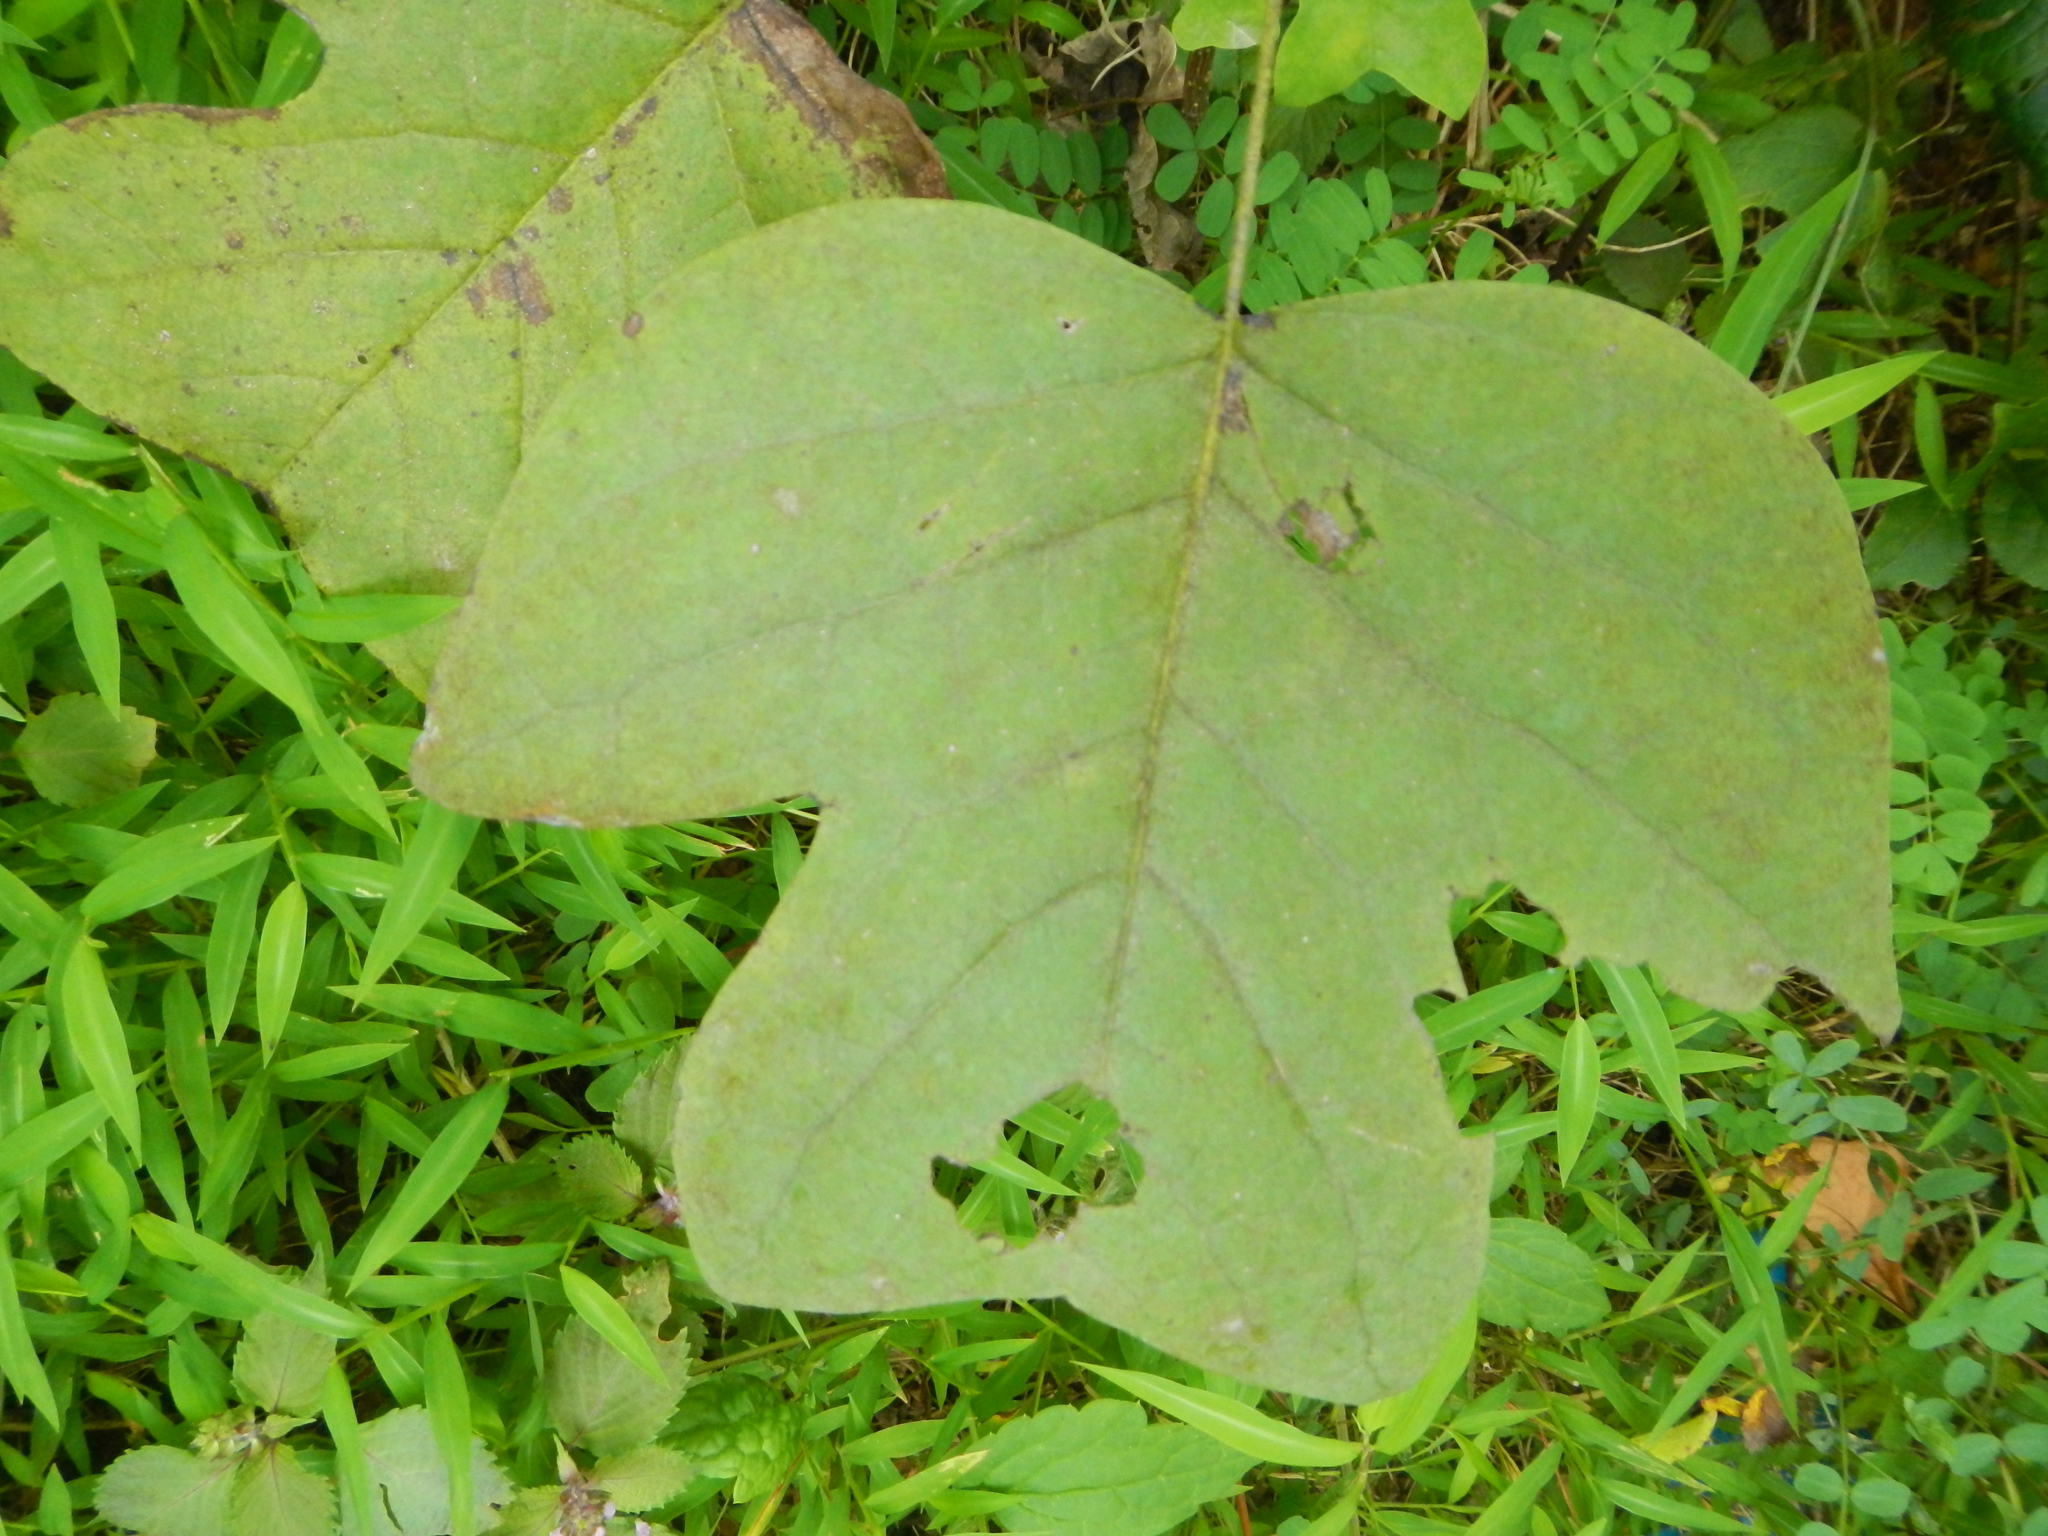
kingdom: Plantae
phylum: Tracheophyta
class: Magnoliopsida
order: Magnoliales
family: Magnoliaceae
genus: Liriodendron
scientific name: Liriodendron tulipifera
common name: Tulip tree
